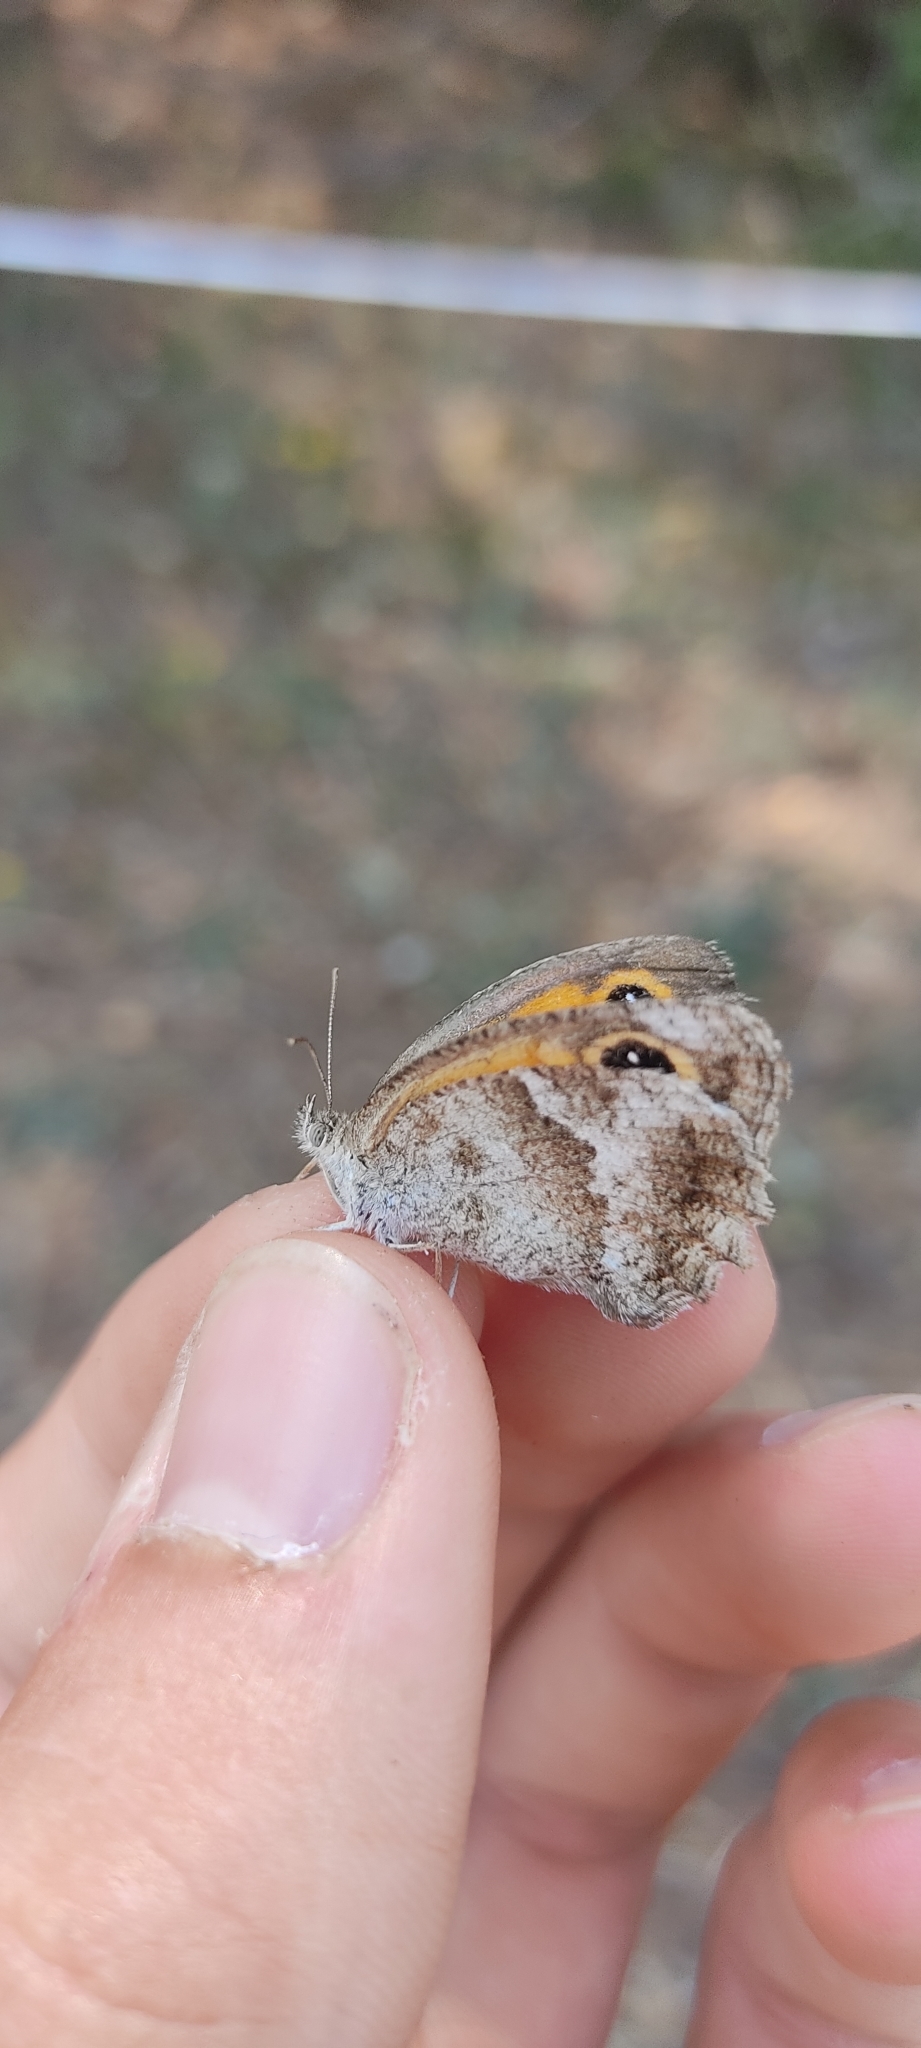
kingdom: Animalia
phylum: Arthropoda
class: Insecta
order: Lepidoptera
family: Nymphalidae
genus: Pyronia
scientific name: Pyronia cecilia
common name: Southern gatekeeper
